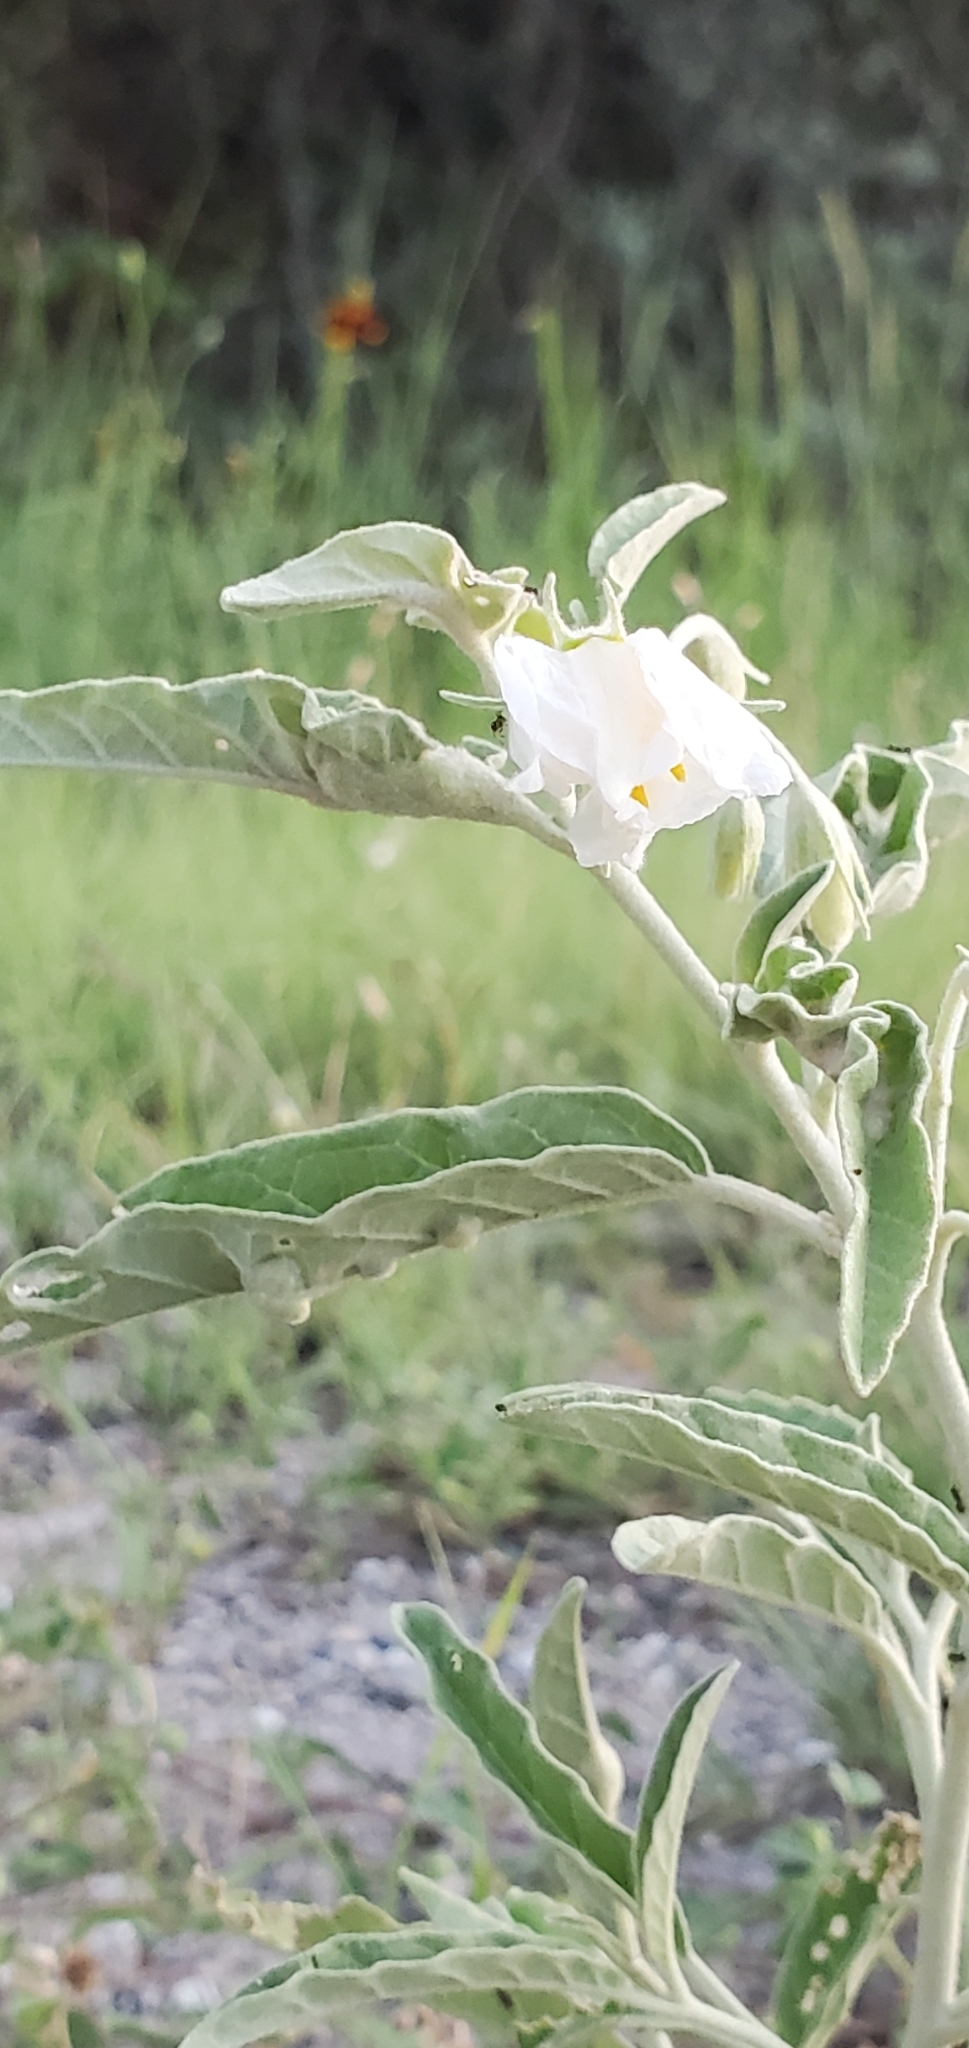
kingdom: Plantae
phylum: Tracheophyta
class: Magnoliopsida
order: Solanales
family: Solanaceae
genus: Solanum
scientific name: Solanum elaeagnifolium
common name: Silverleaf nightshade
